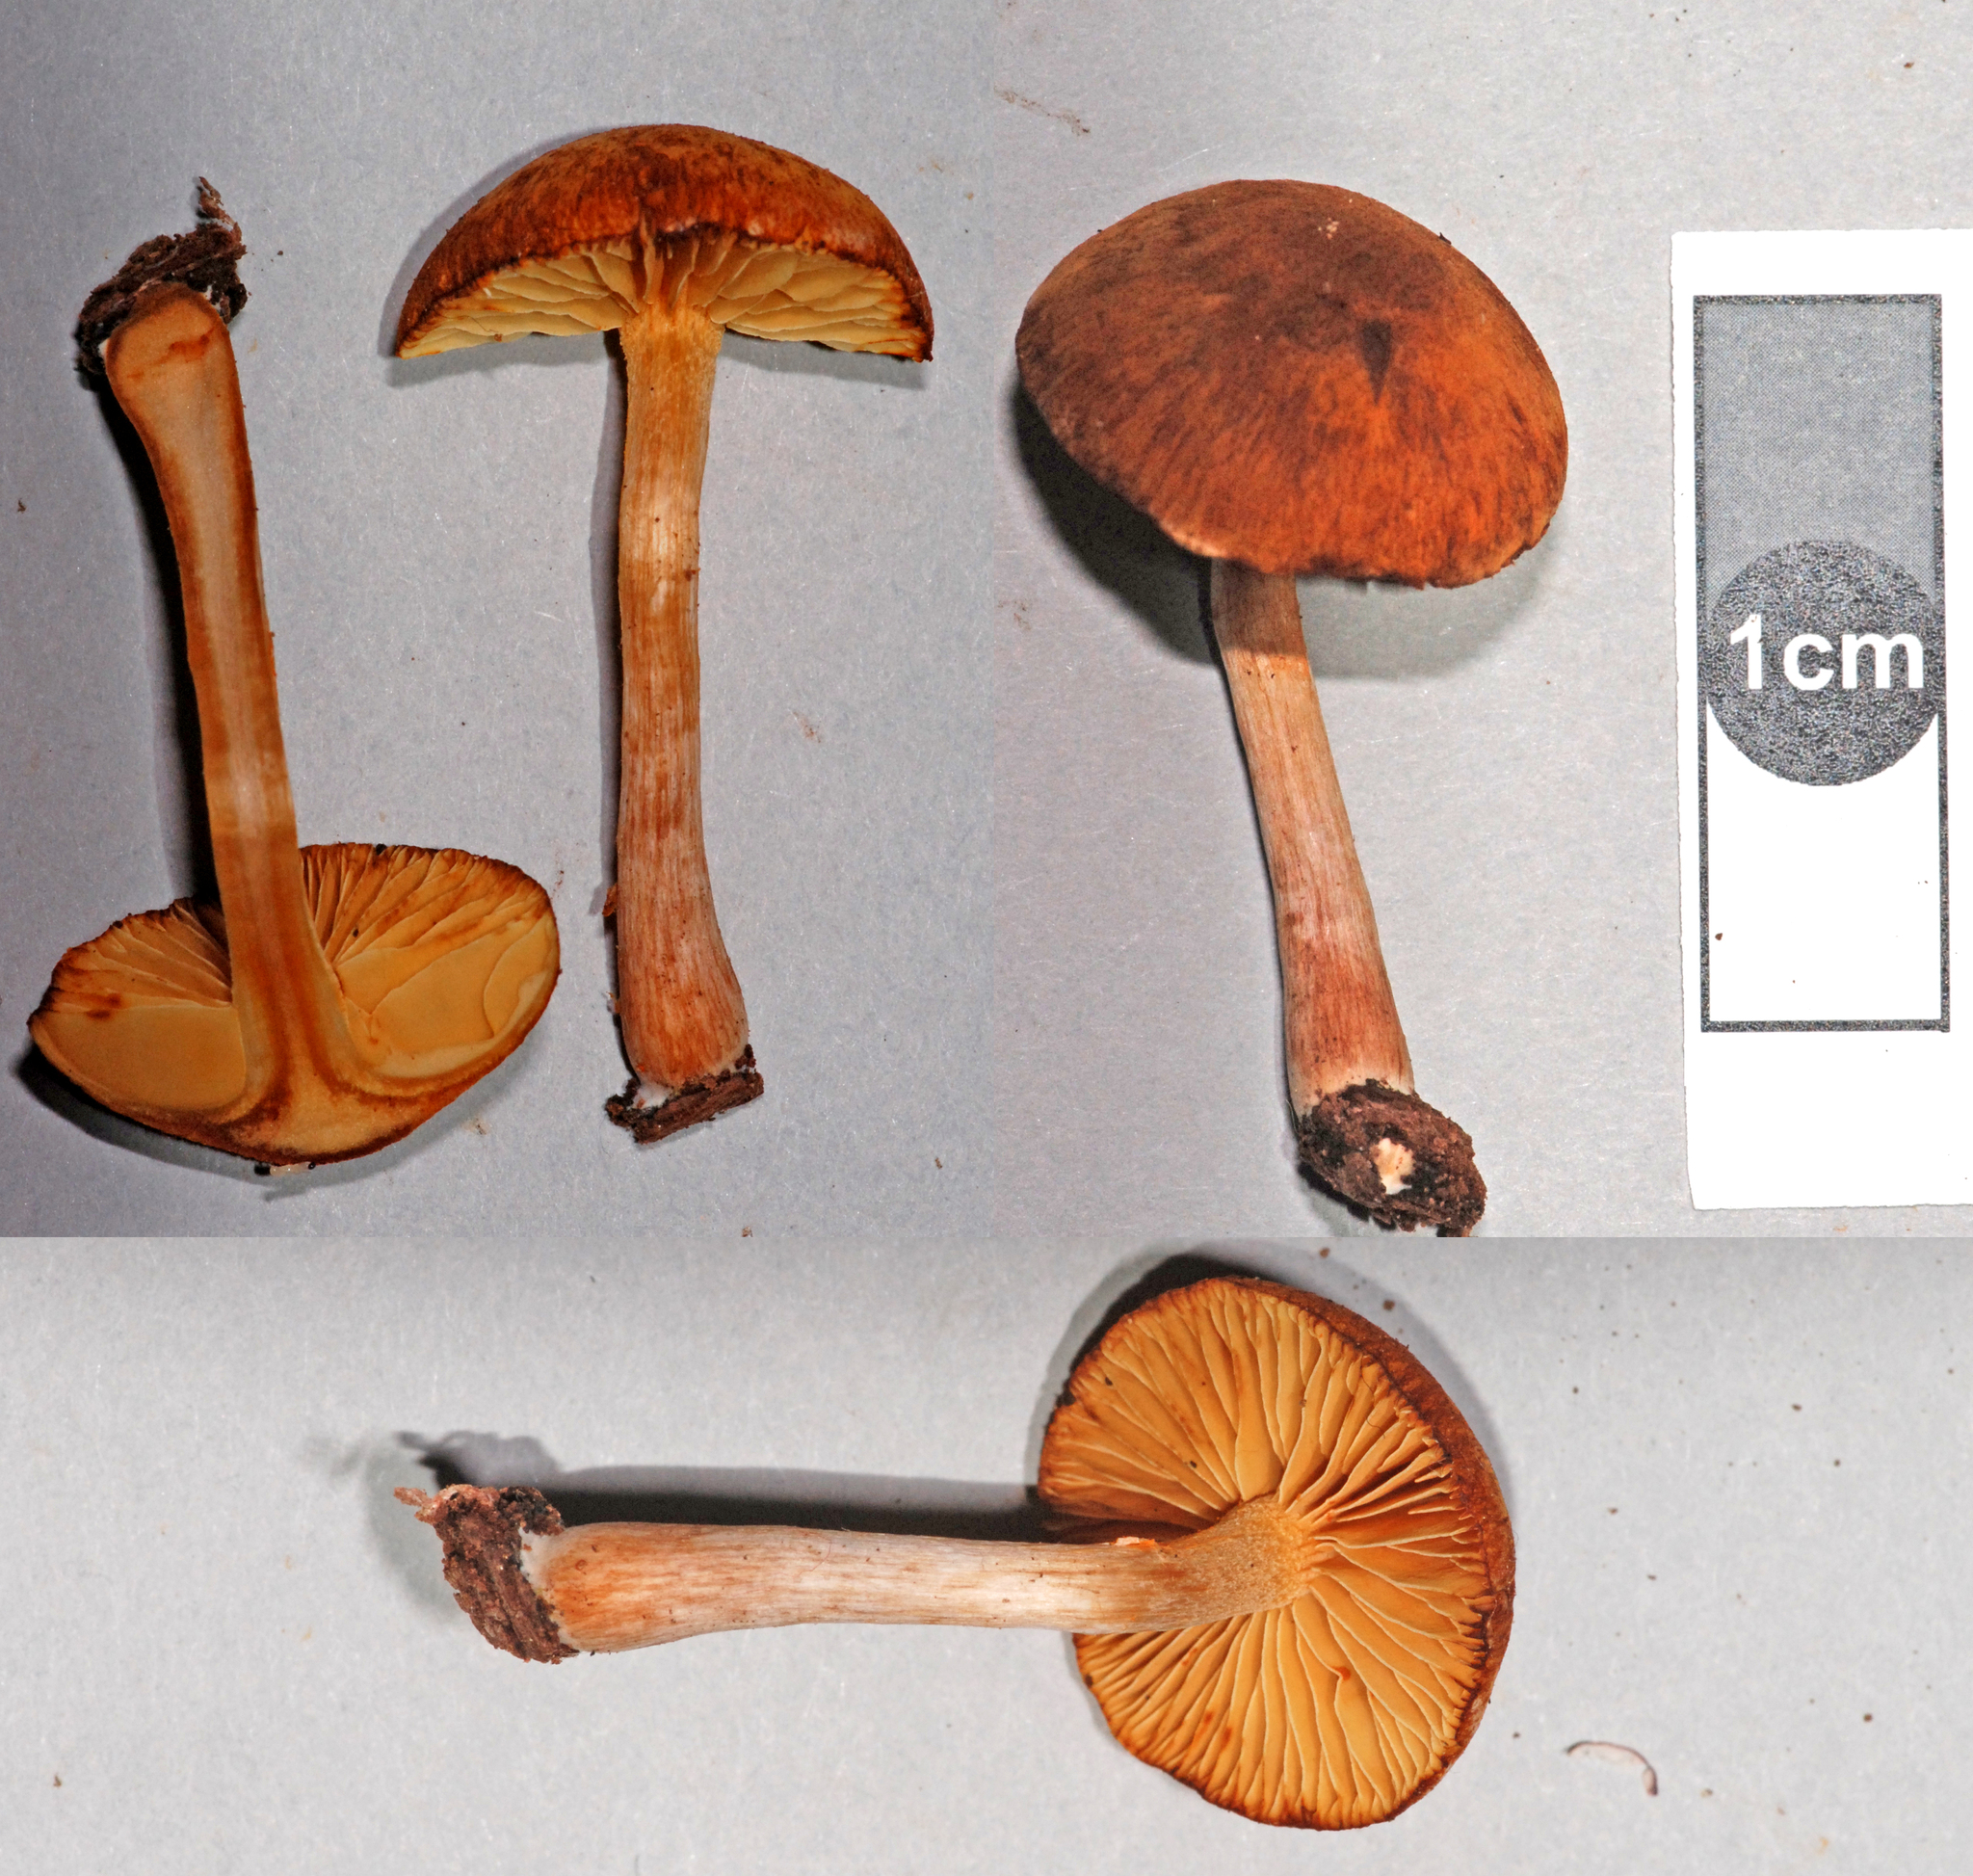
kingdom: Fungi
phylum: Basidiomycota
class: Agaricomycetes
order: Agaricales
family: Hymenogastraceae
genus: Gymnopilus
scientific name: Gymnopilus allantopus
